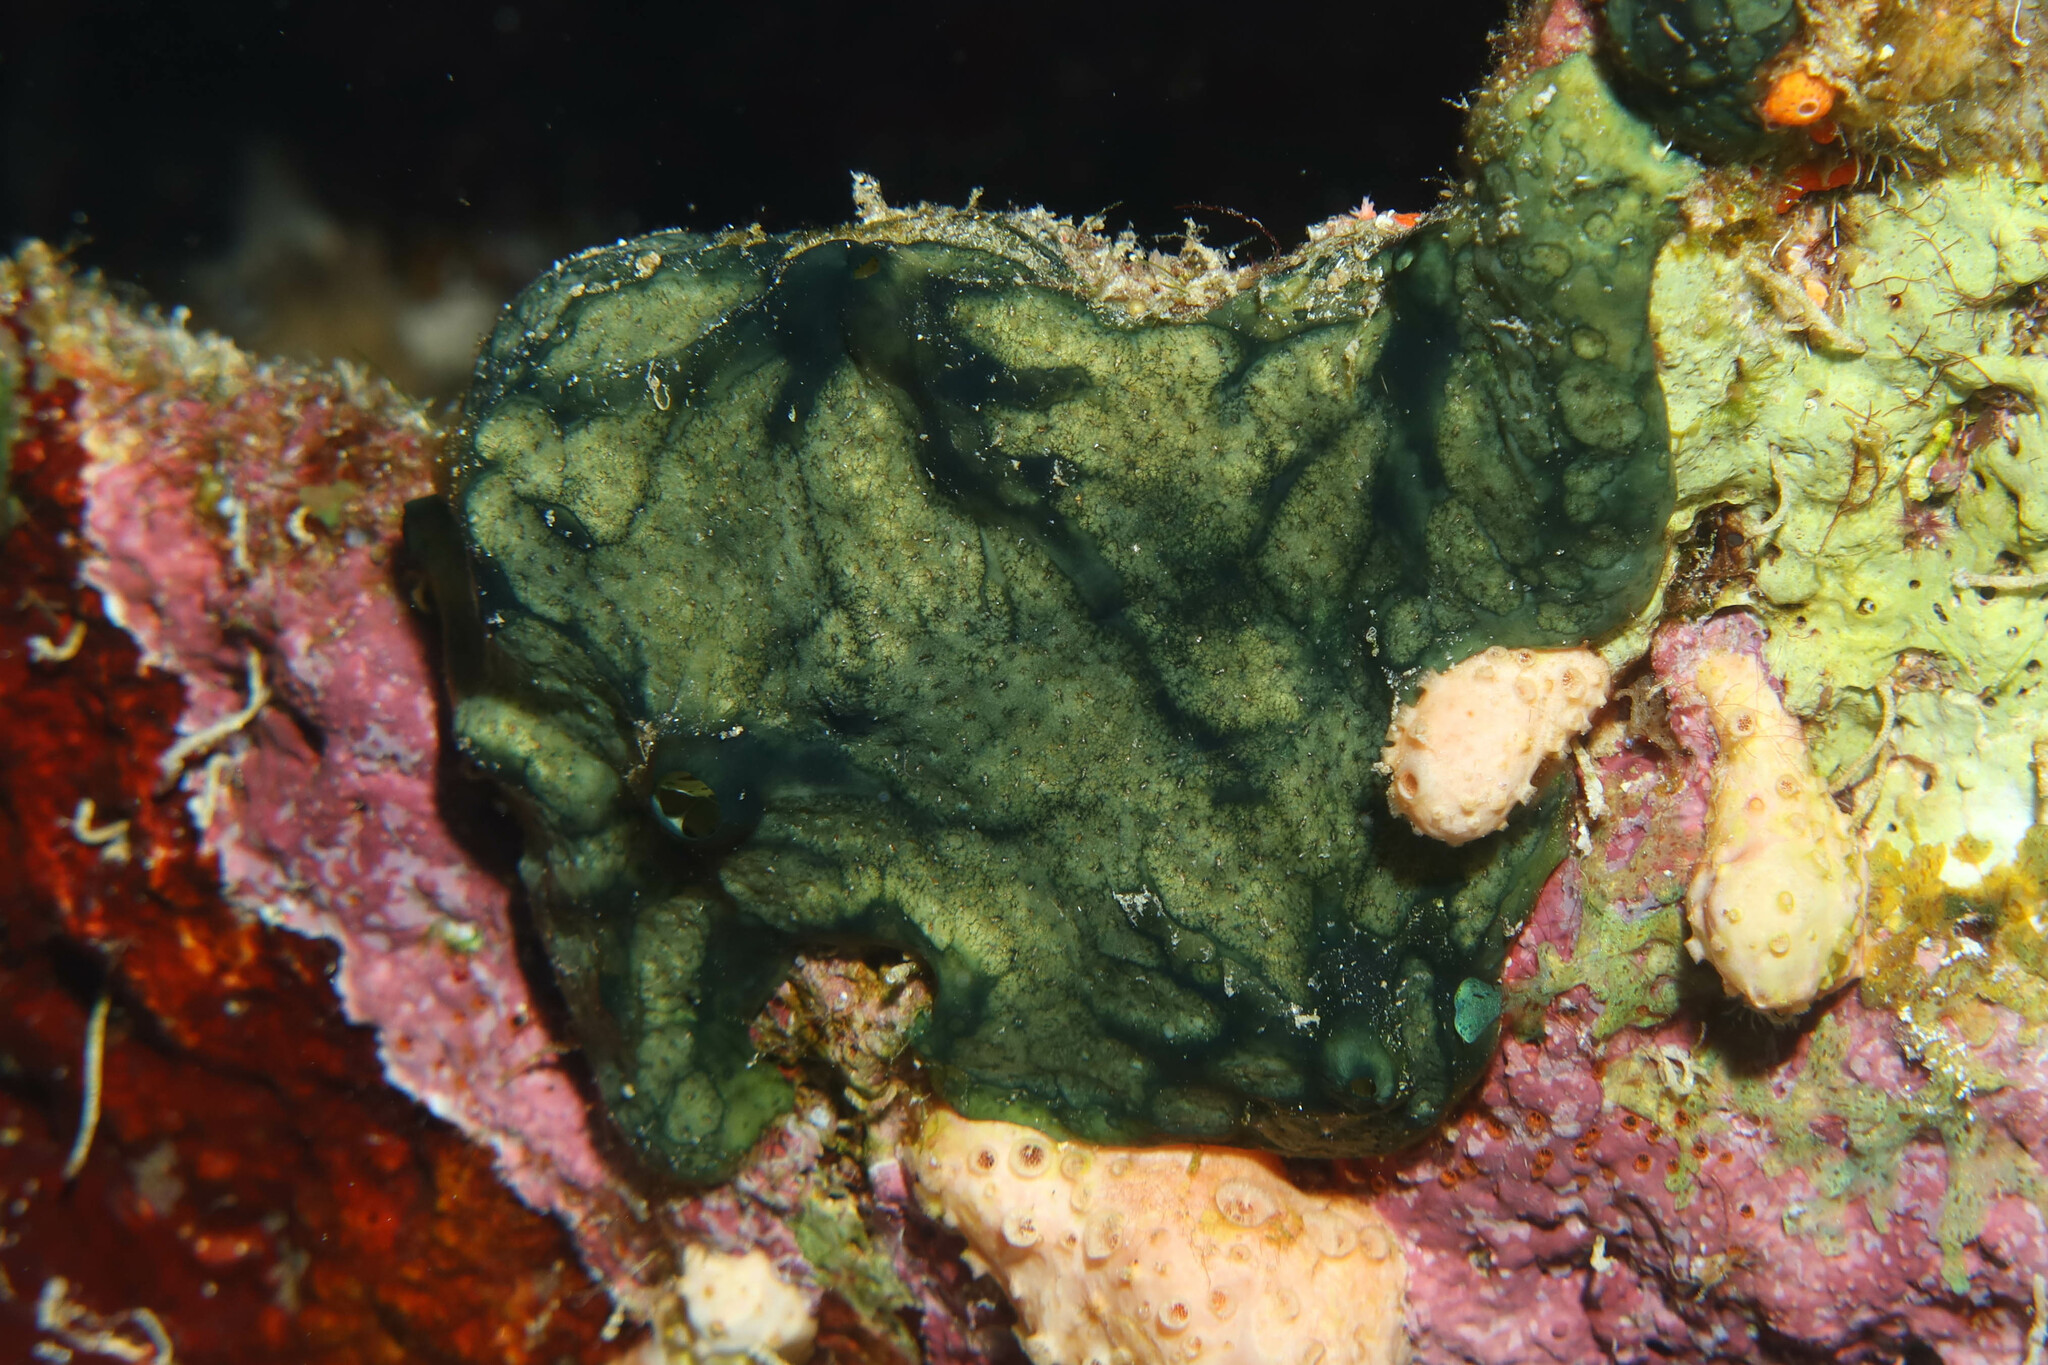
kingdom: Animalia
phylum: Porifera
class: Demospongiae
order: Poecilosclerida
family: Hymedesmiidae
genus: Hemimycale
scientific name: Hemimycale arabica
